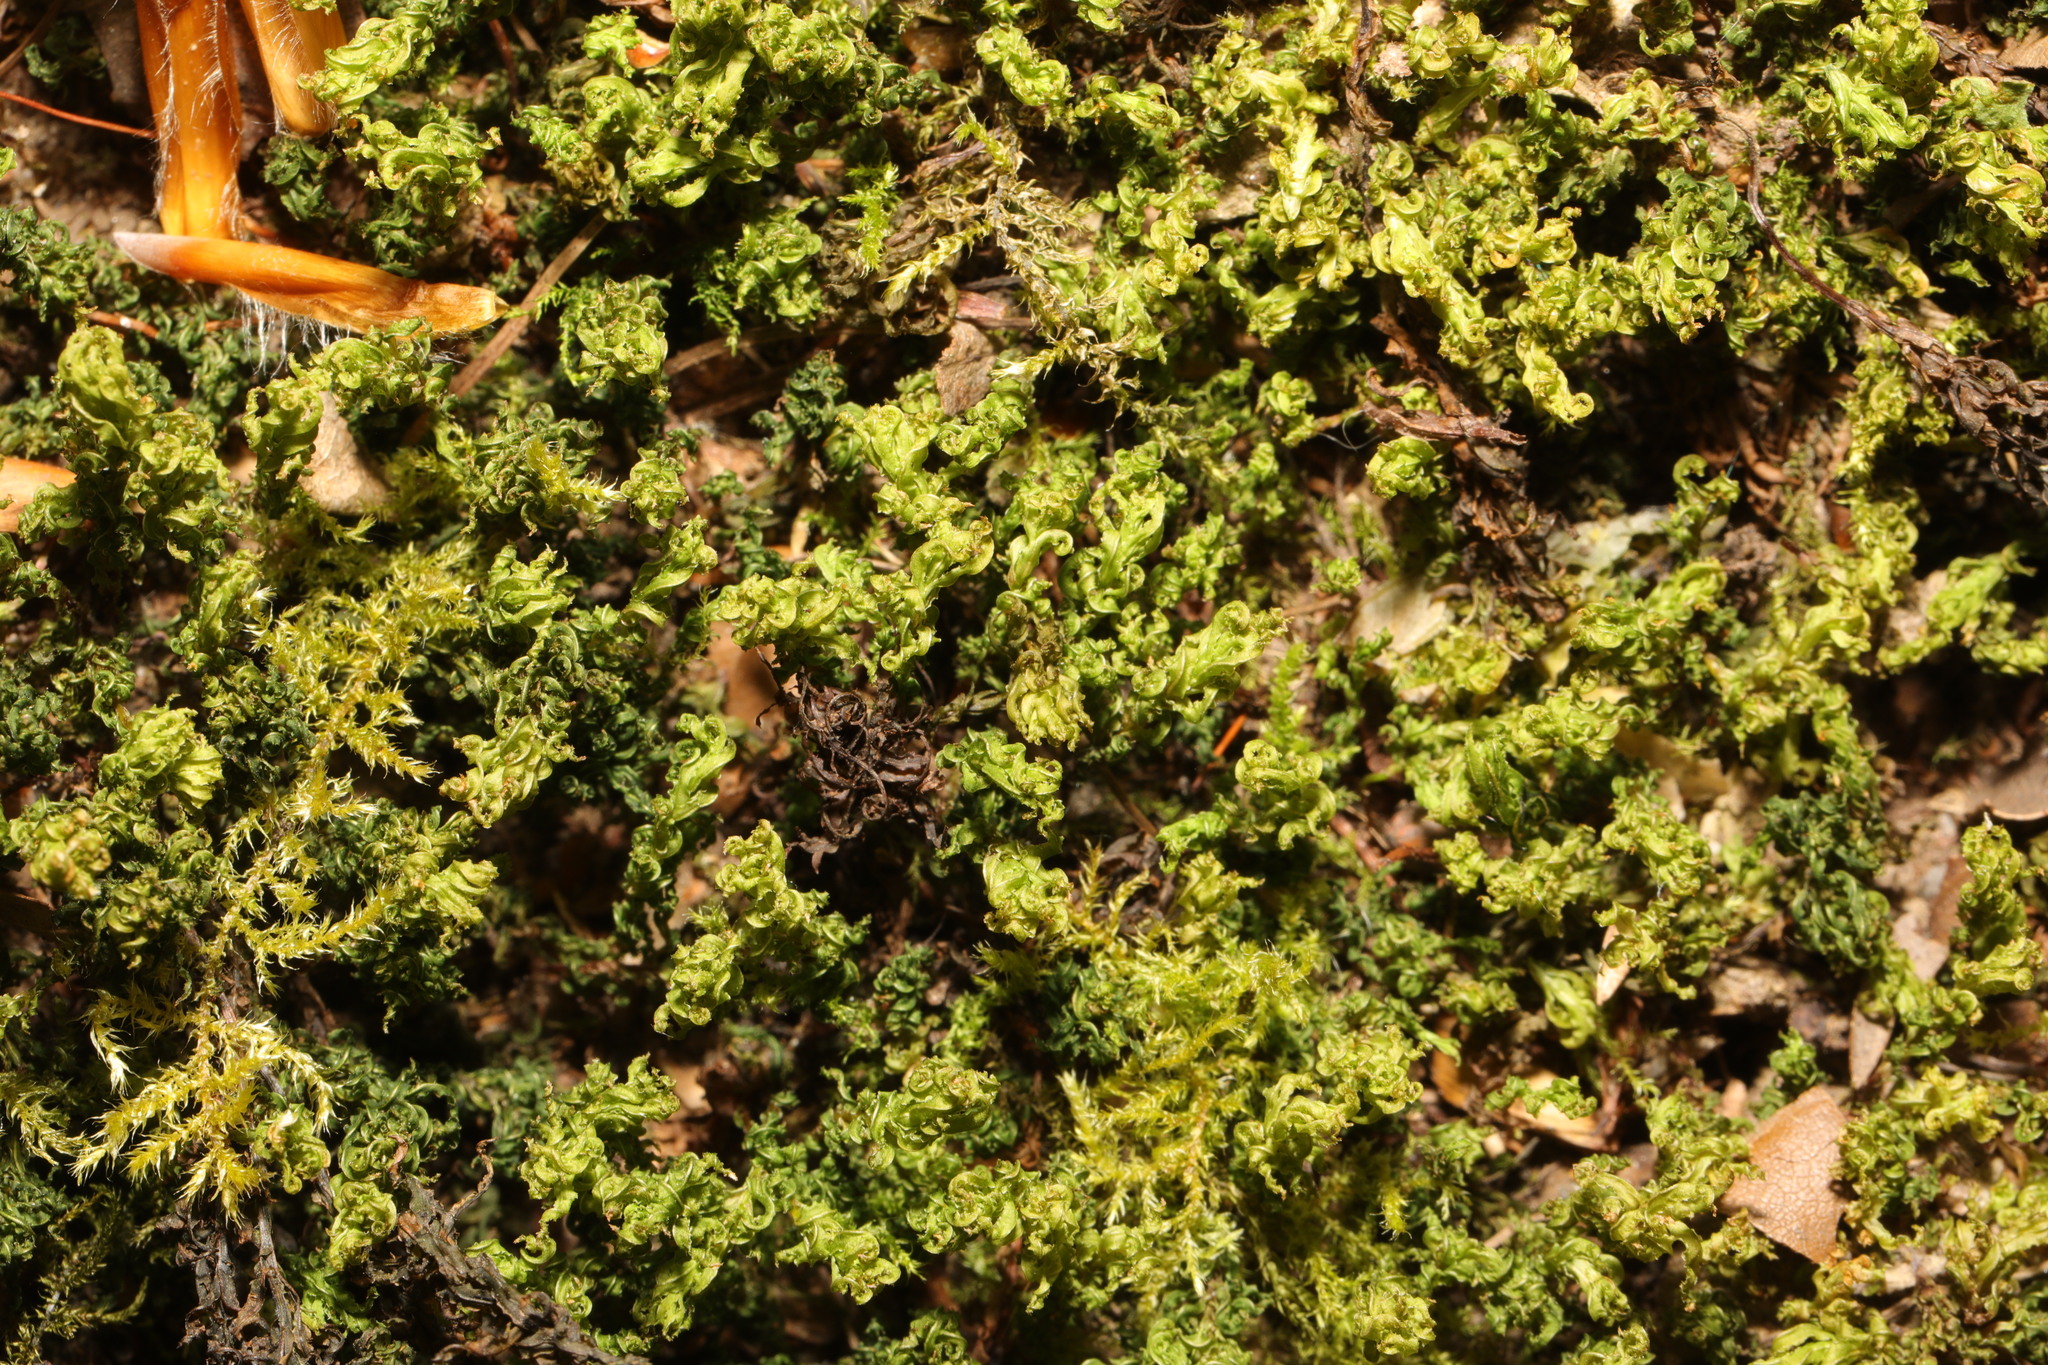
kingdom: Plantae
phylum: Bryophyta
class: Bryopsida
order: Bryales
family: Mniaceae
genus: Plagiomnium
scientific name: Plagiomnium undulatum
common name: Hart's-tongue thyme-moss
